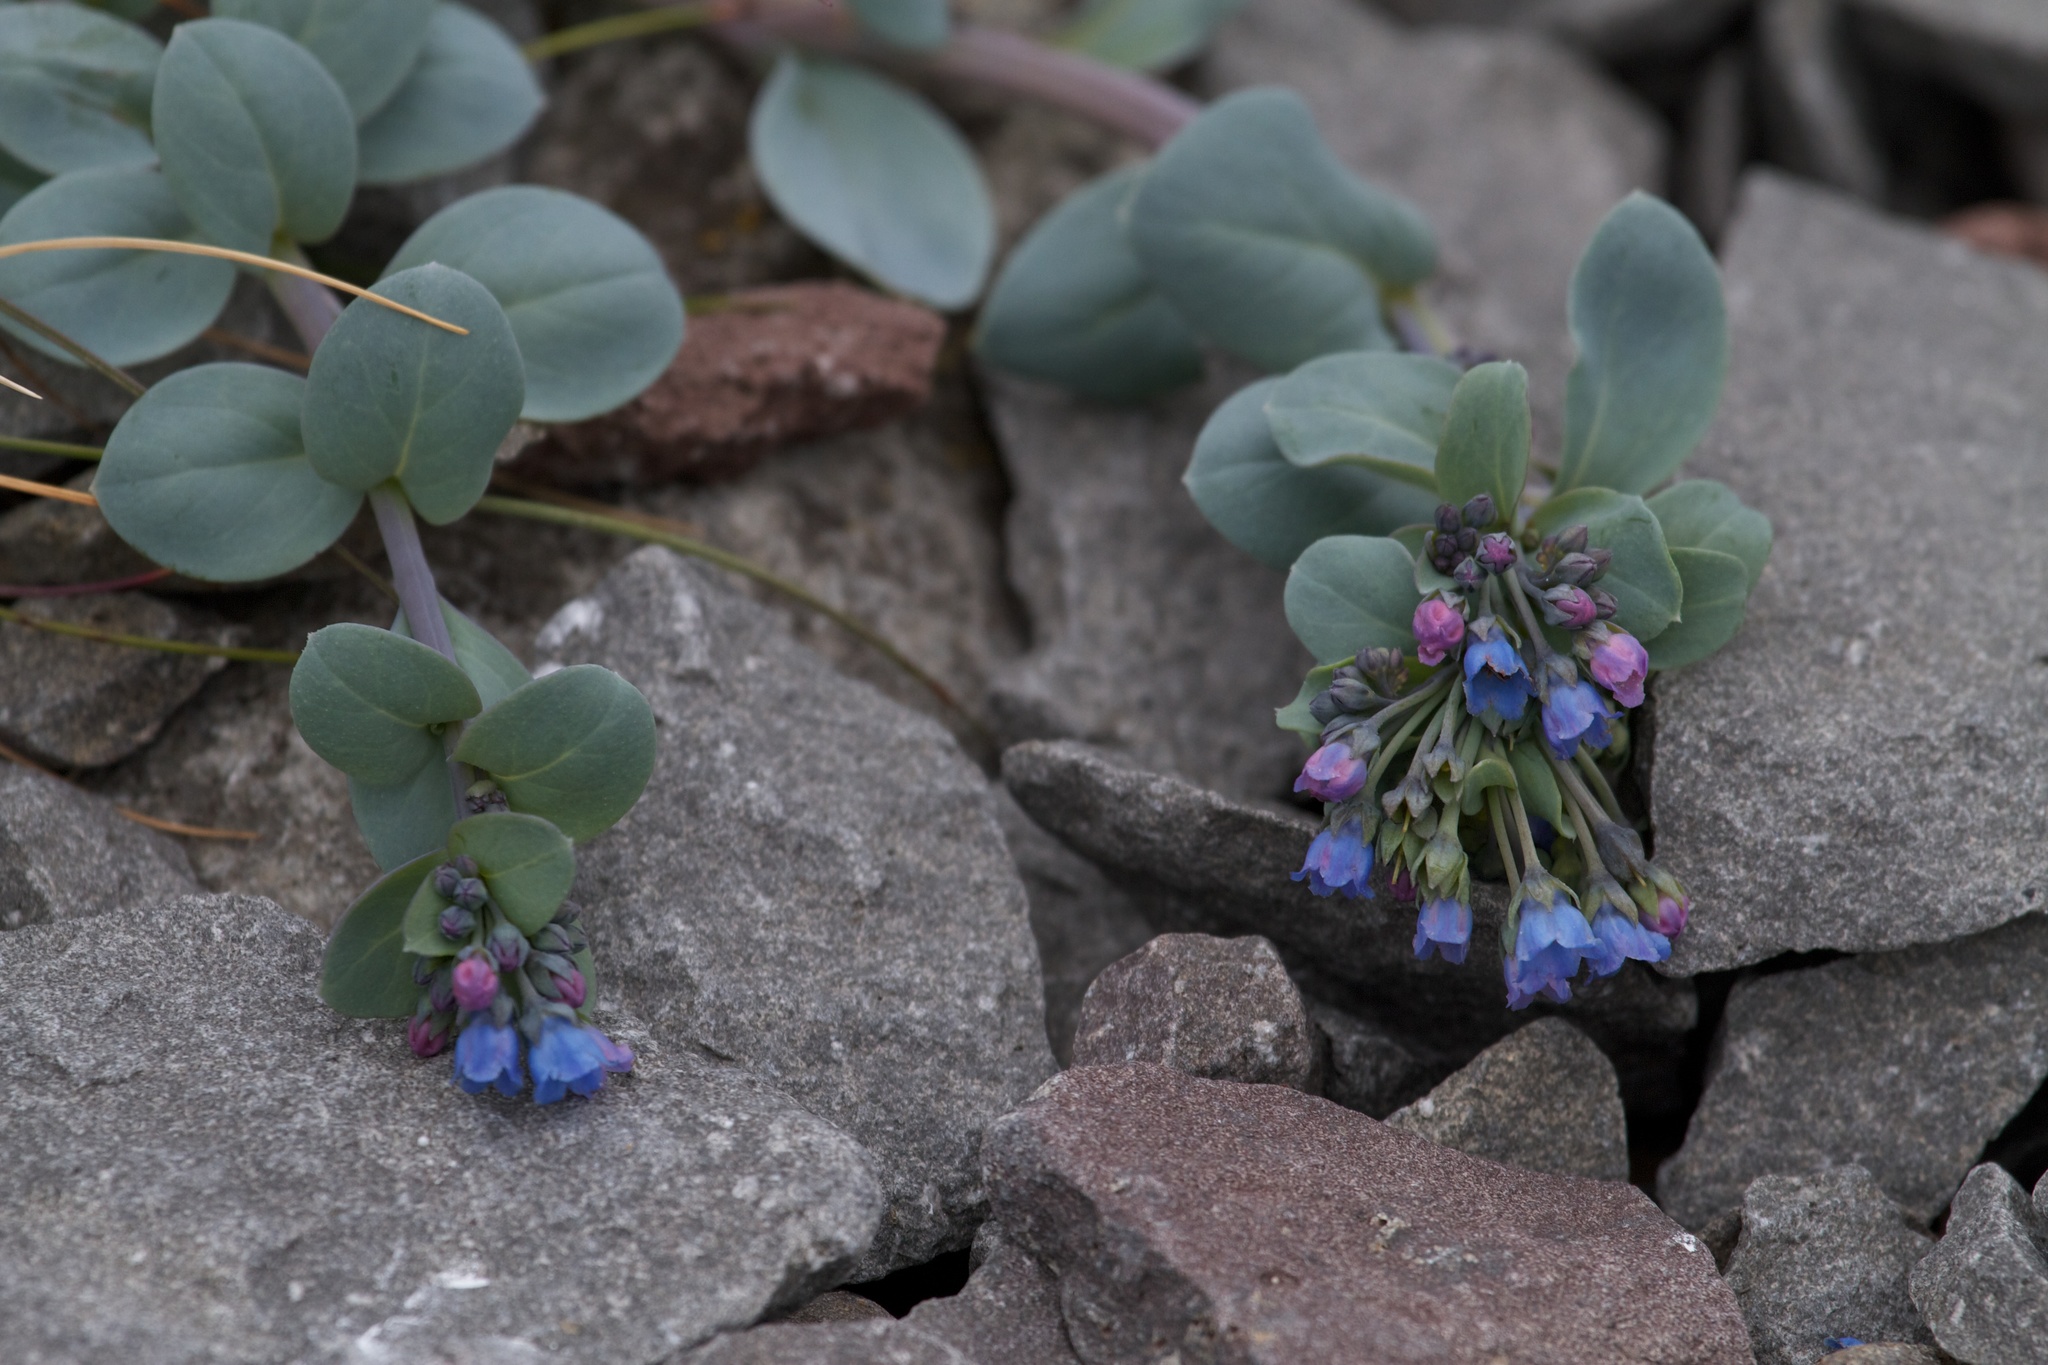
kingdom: Plantae
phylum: Tracheophyta
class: Magnoliopsida
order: Boraginales
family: Boraginaceae
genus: Mertensia
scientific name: Mertensia maritima
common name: Oysterplant
